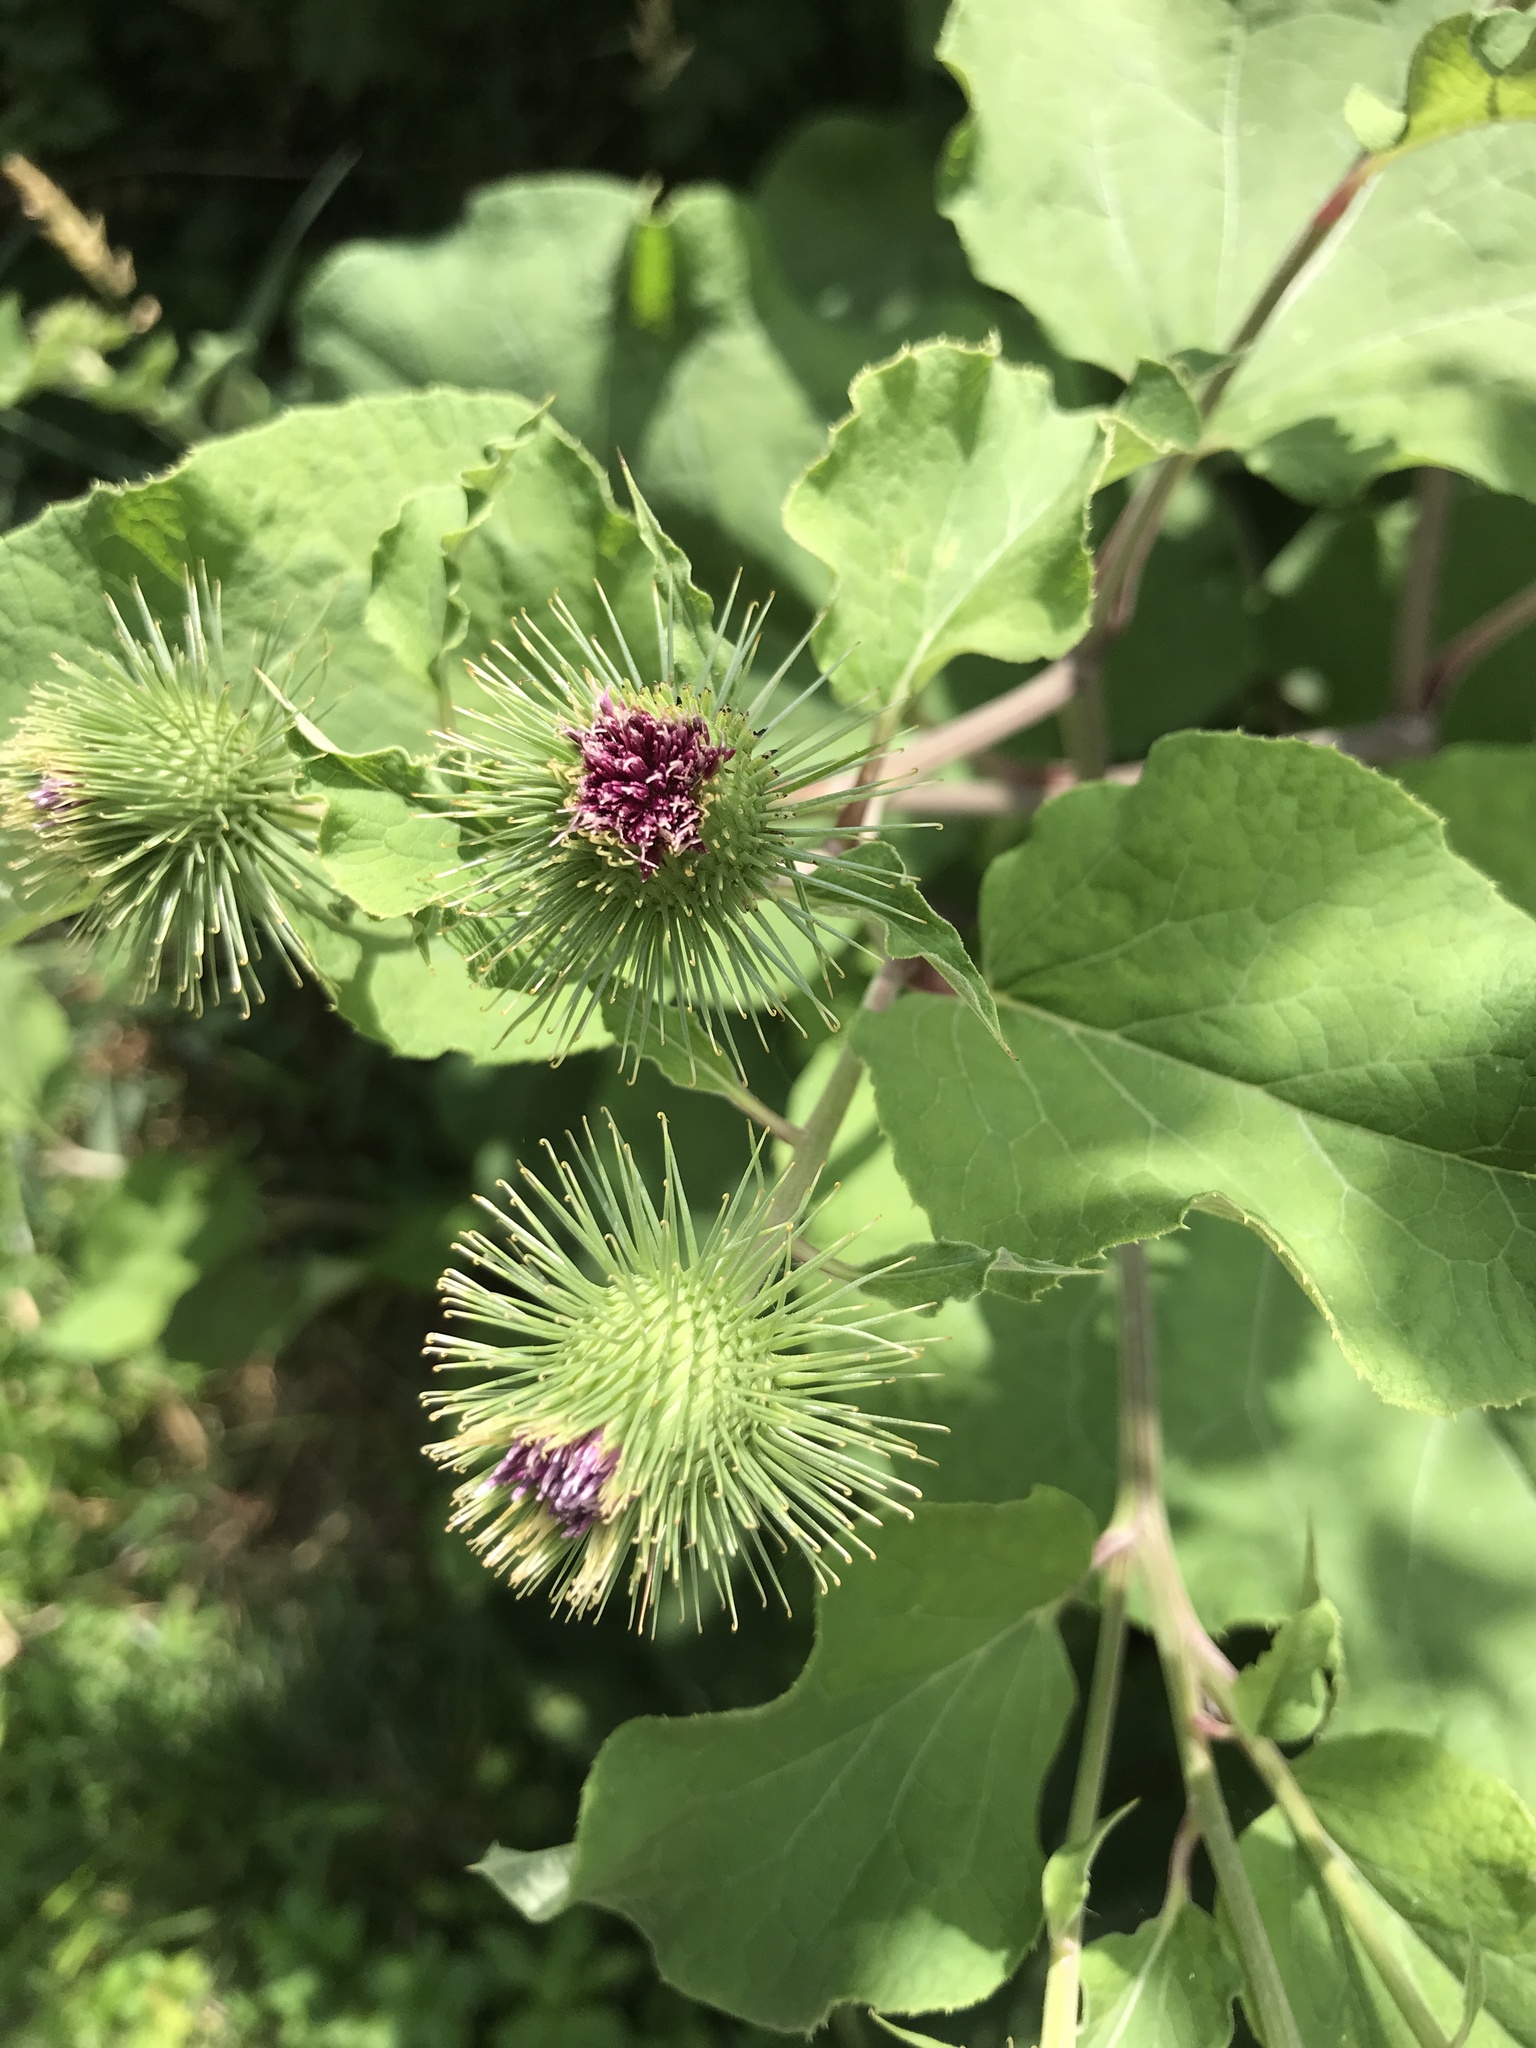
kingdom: Plantae
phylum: Tracheophyta
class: Magnoliopsida
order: Asterales
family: Asteraceae
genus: Arctium
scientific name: Arctium lappa
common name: Greater burdock
